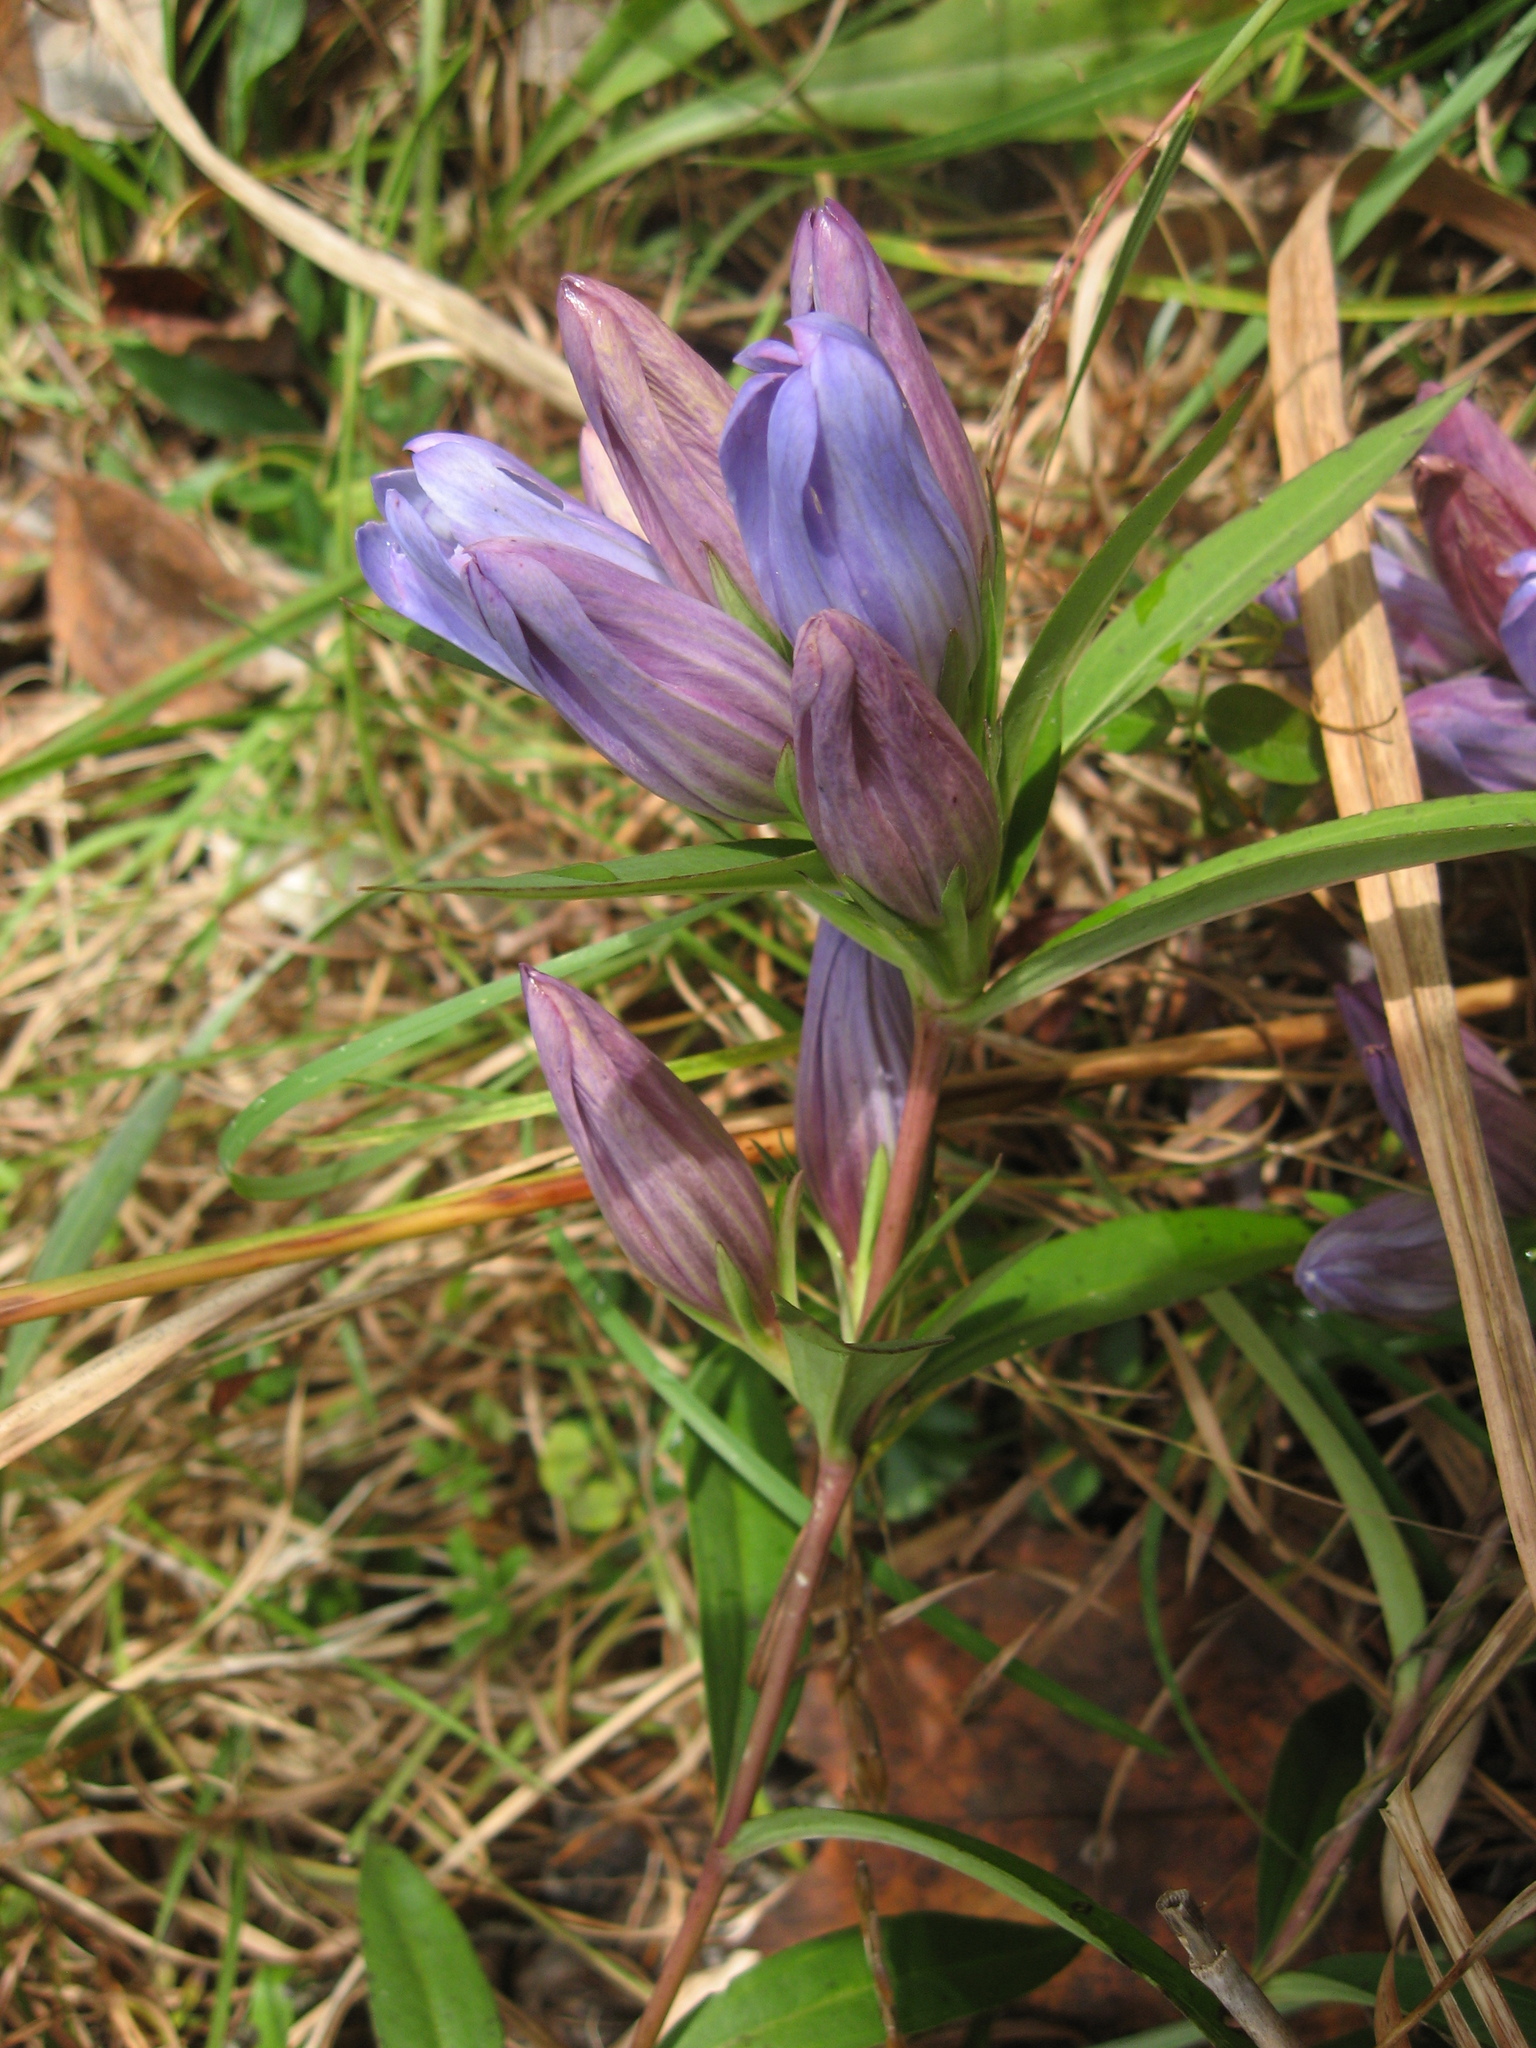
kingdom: Plantae
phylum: Tracheophyta
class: Magnoliopsida
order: Gentianales
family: Gentianaceae
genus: Gentiana
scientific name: Gentiana saponaria
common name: Soapwort gentian
